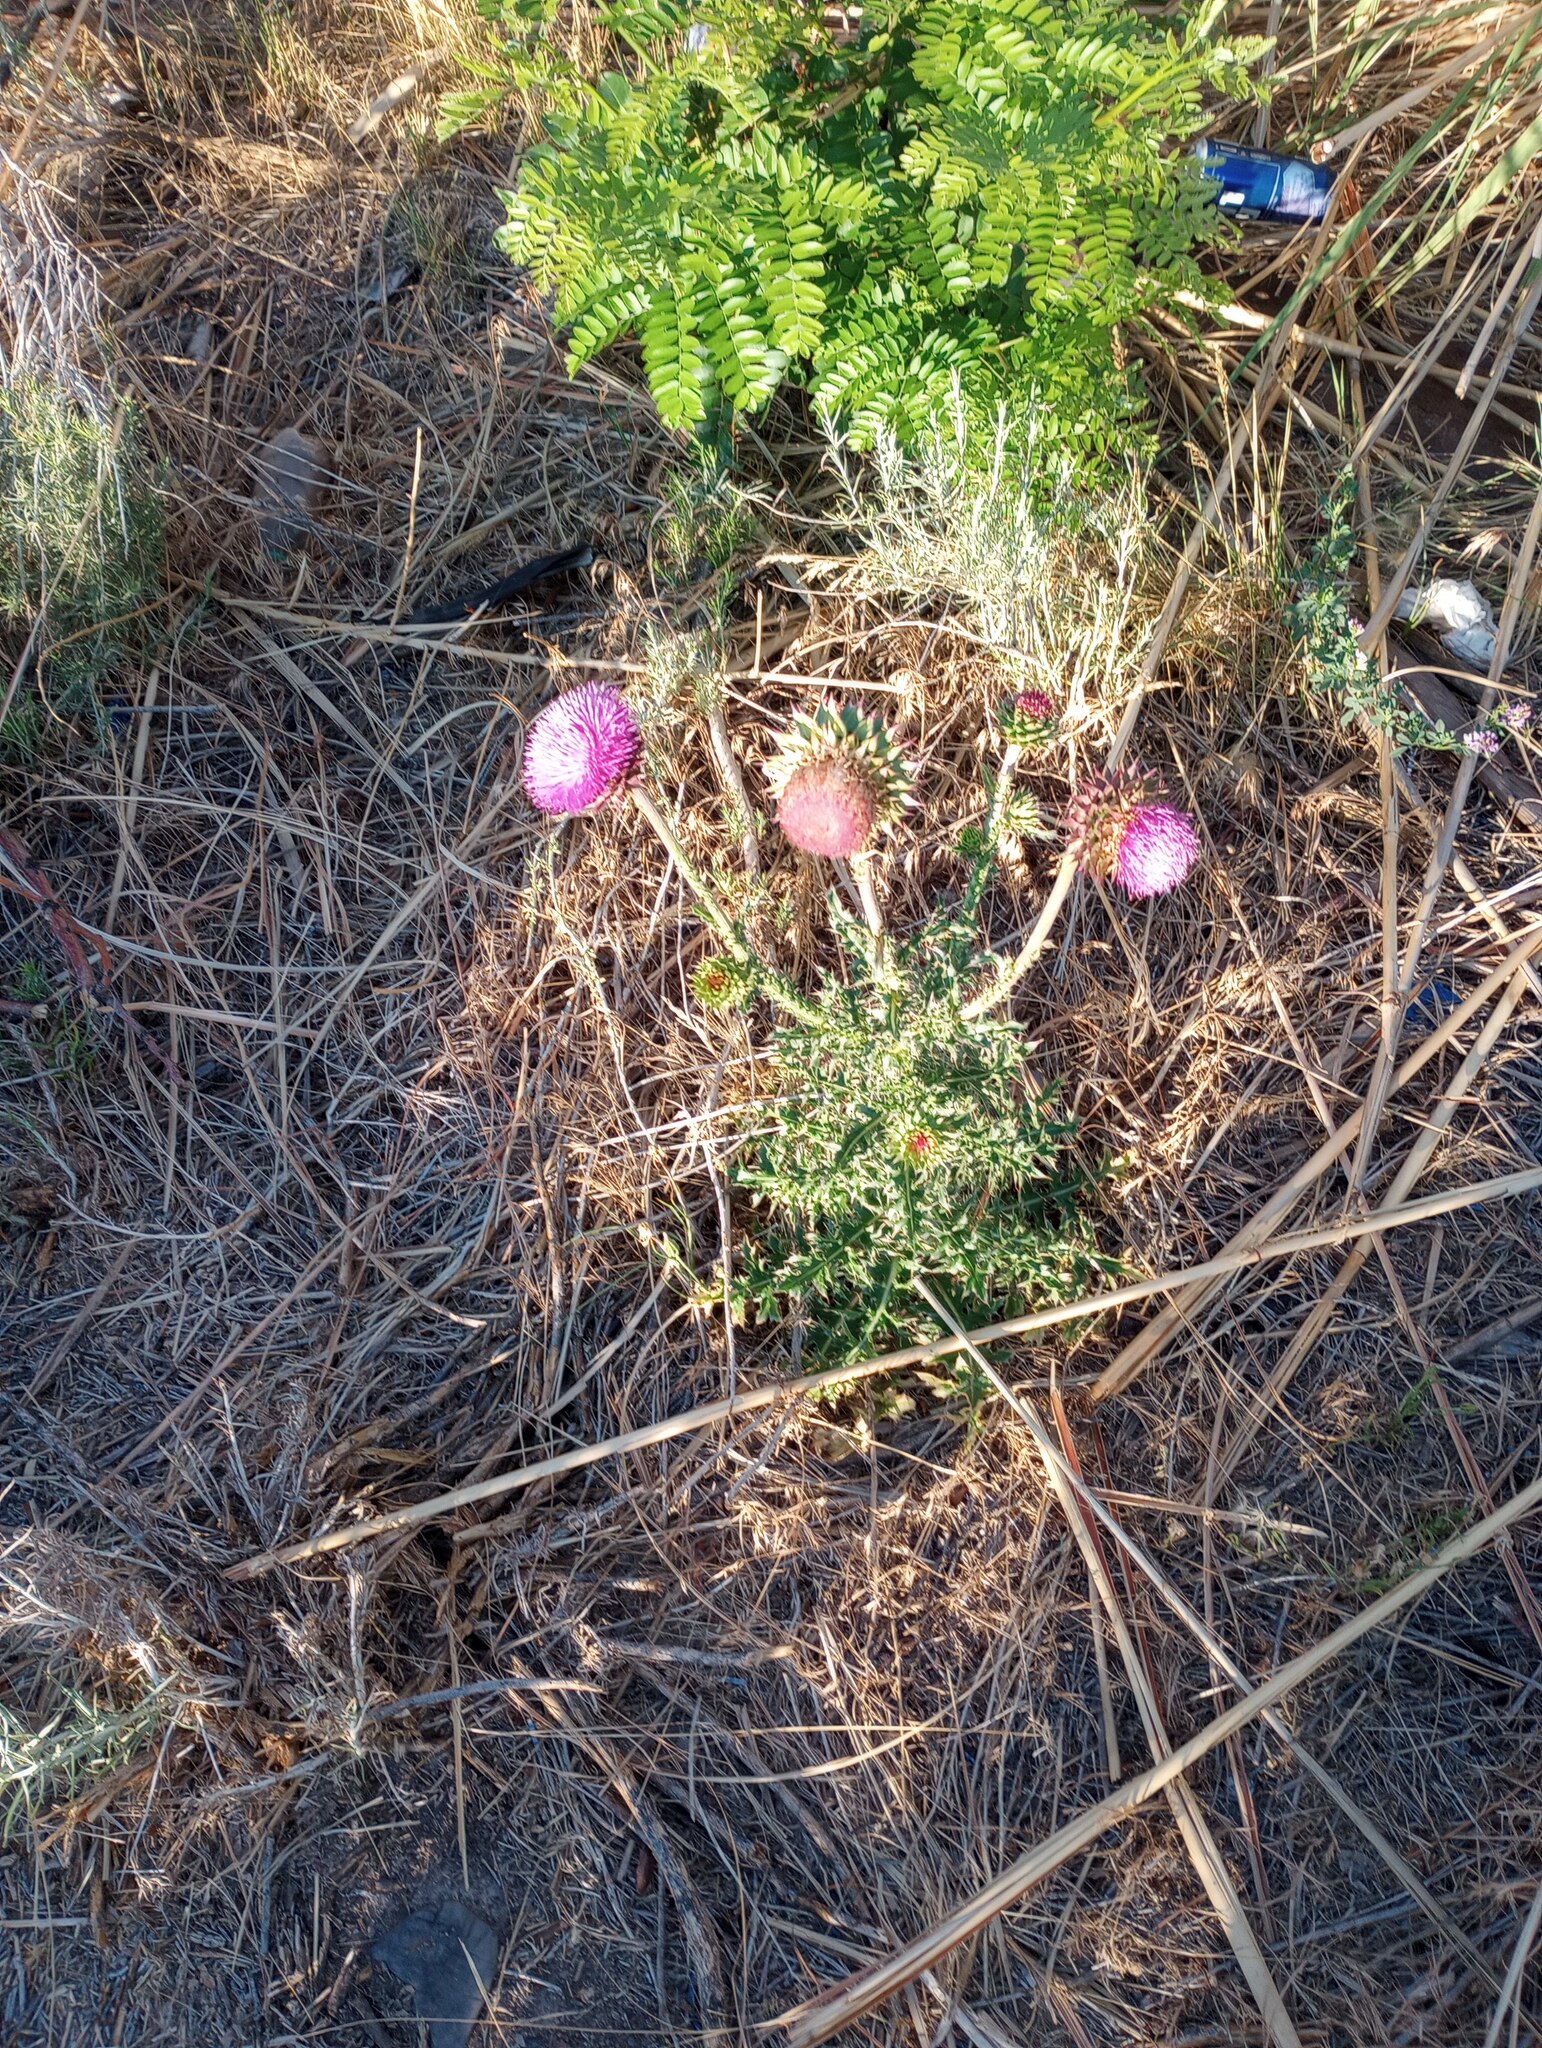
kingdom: Plantae
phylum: Tracheophyta
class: Magnoliopsida
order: Asterales
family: Asteraceae
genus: Carduus
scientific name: Carduus nutans
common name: Musk thistle
